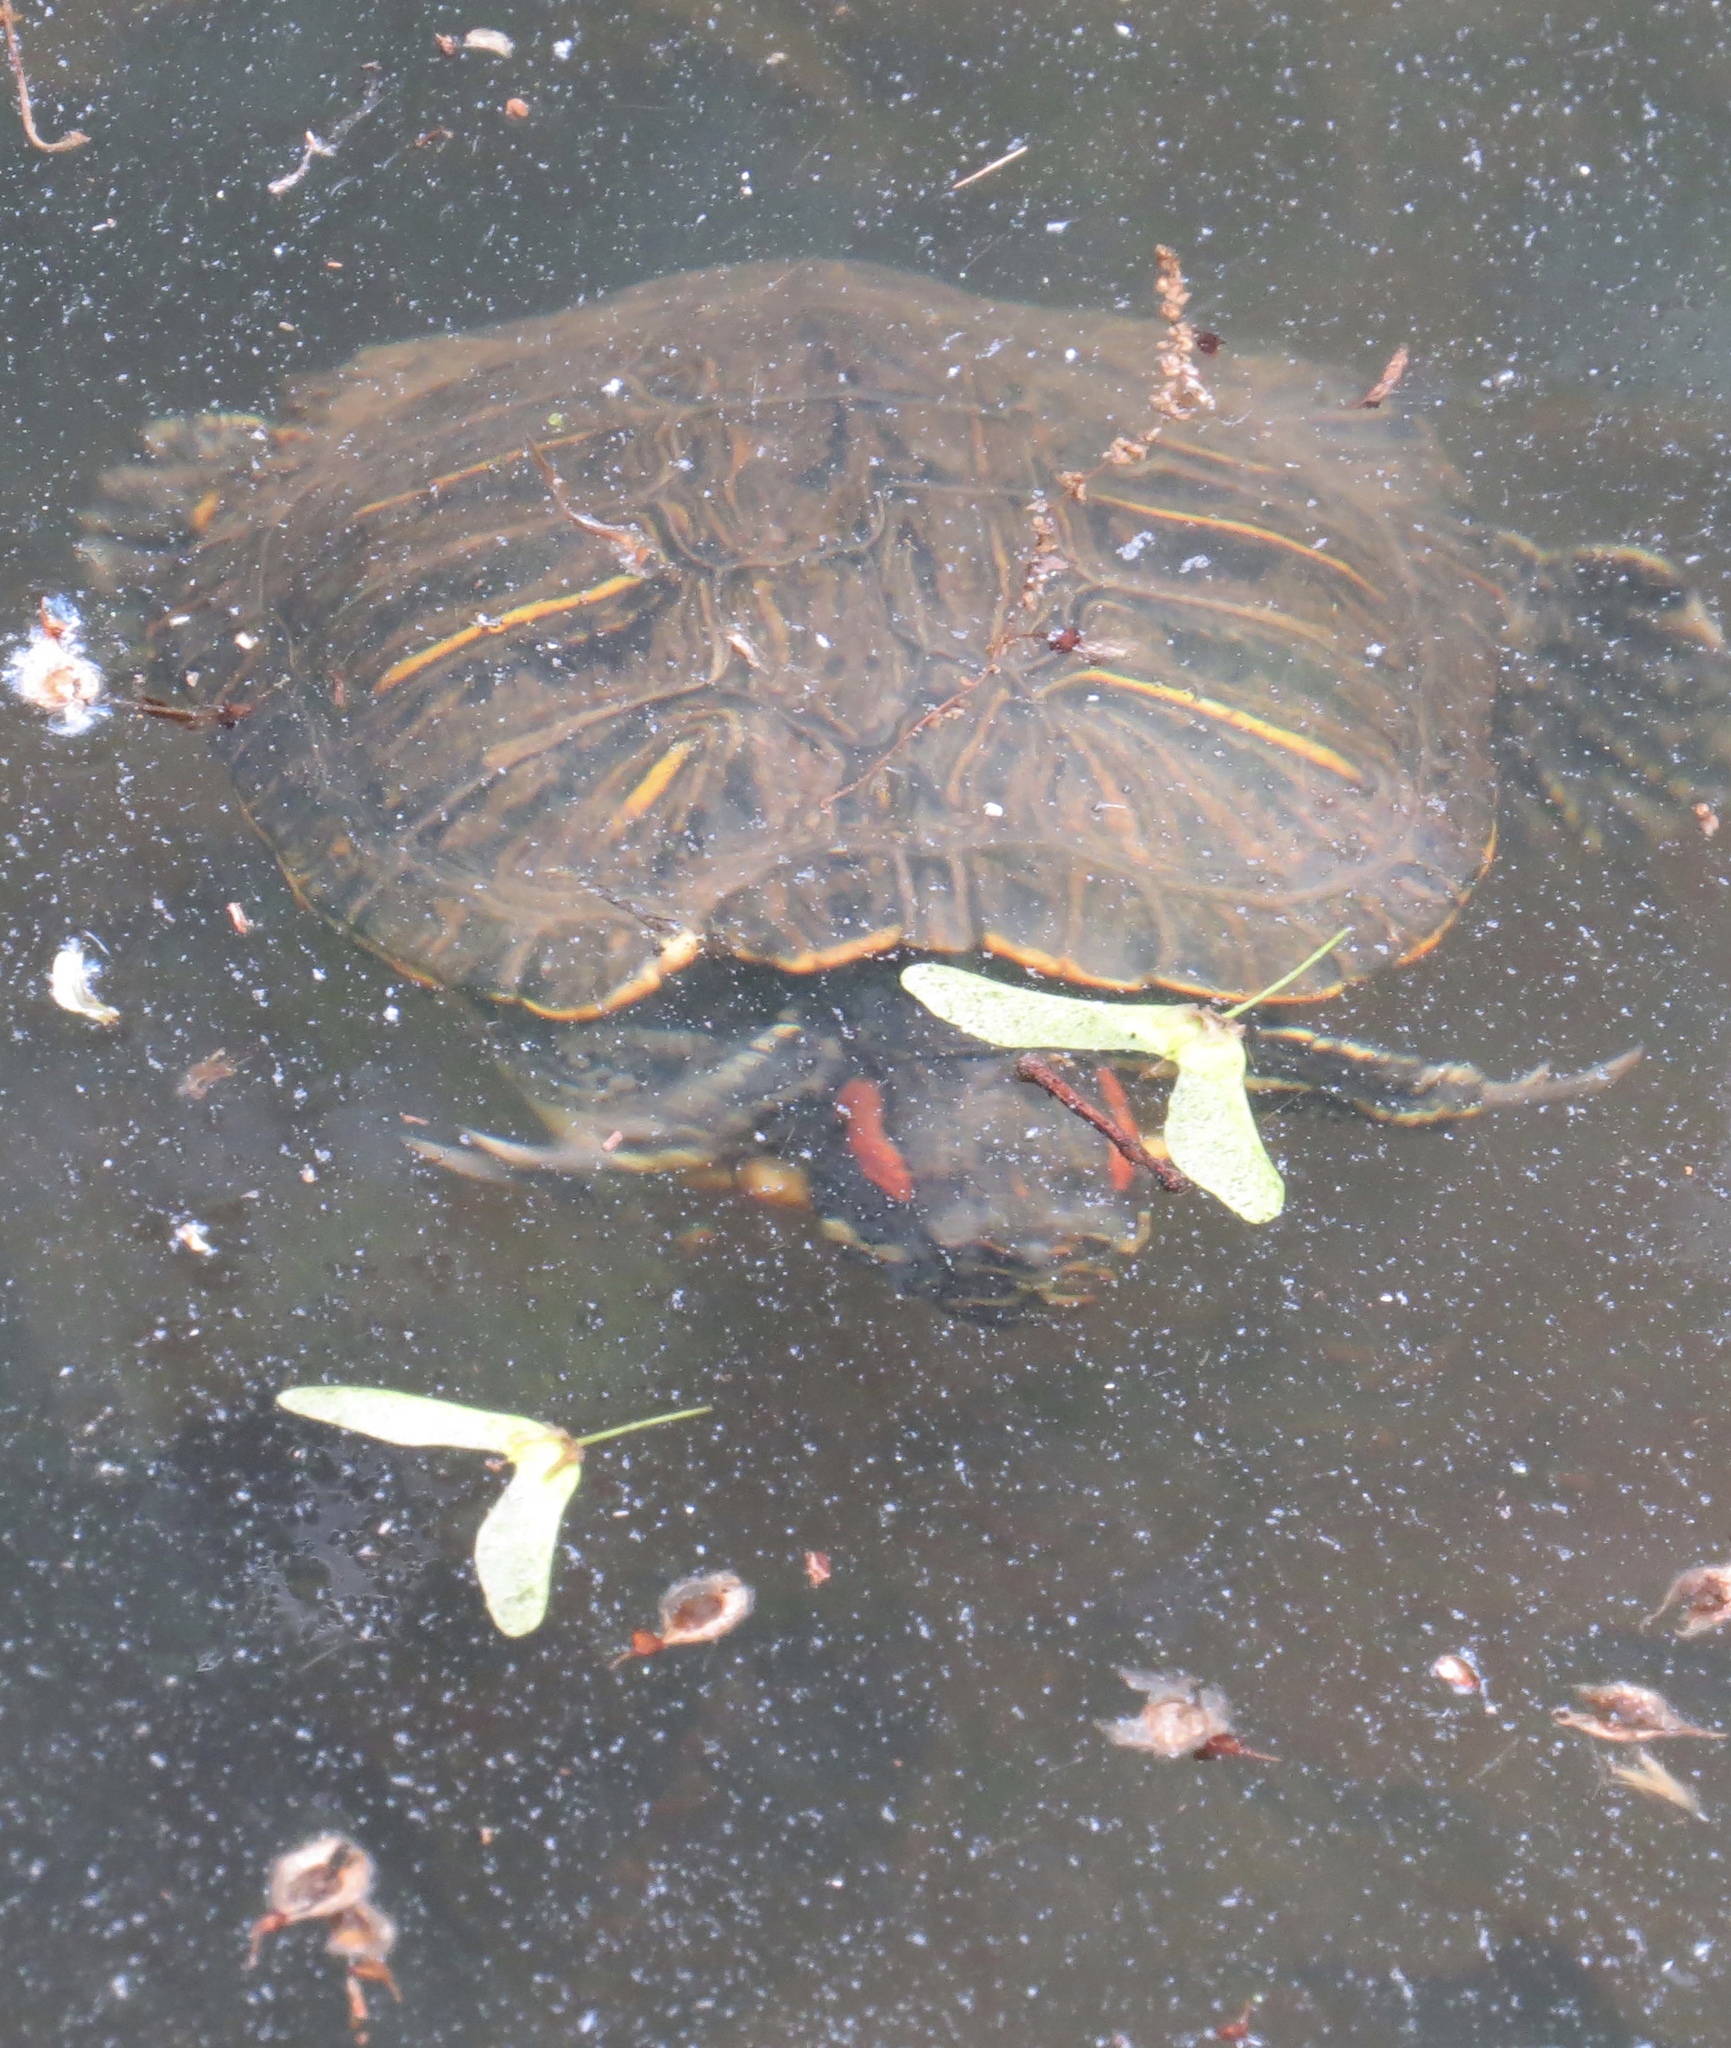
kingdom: Animalia
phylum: Chordata
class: Testudines
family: Emydidae
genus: Trachemys
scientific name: Trachemys scripta
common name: Slider
